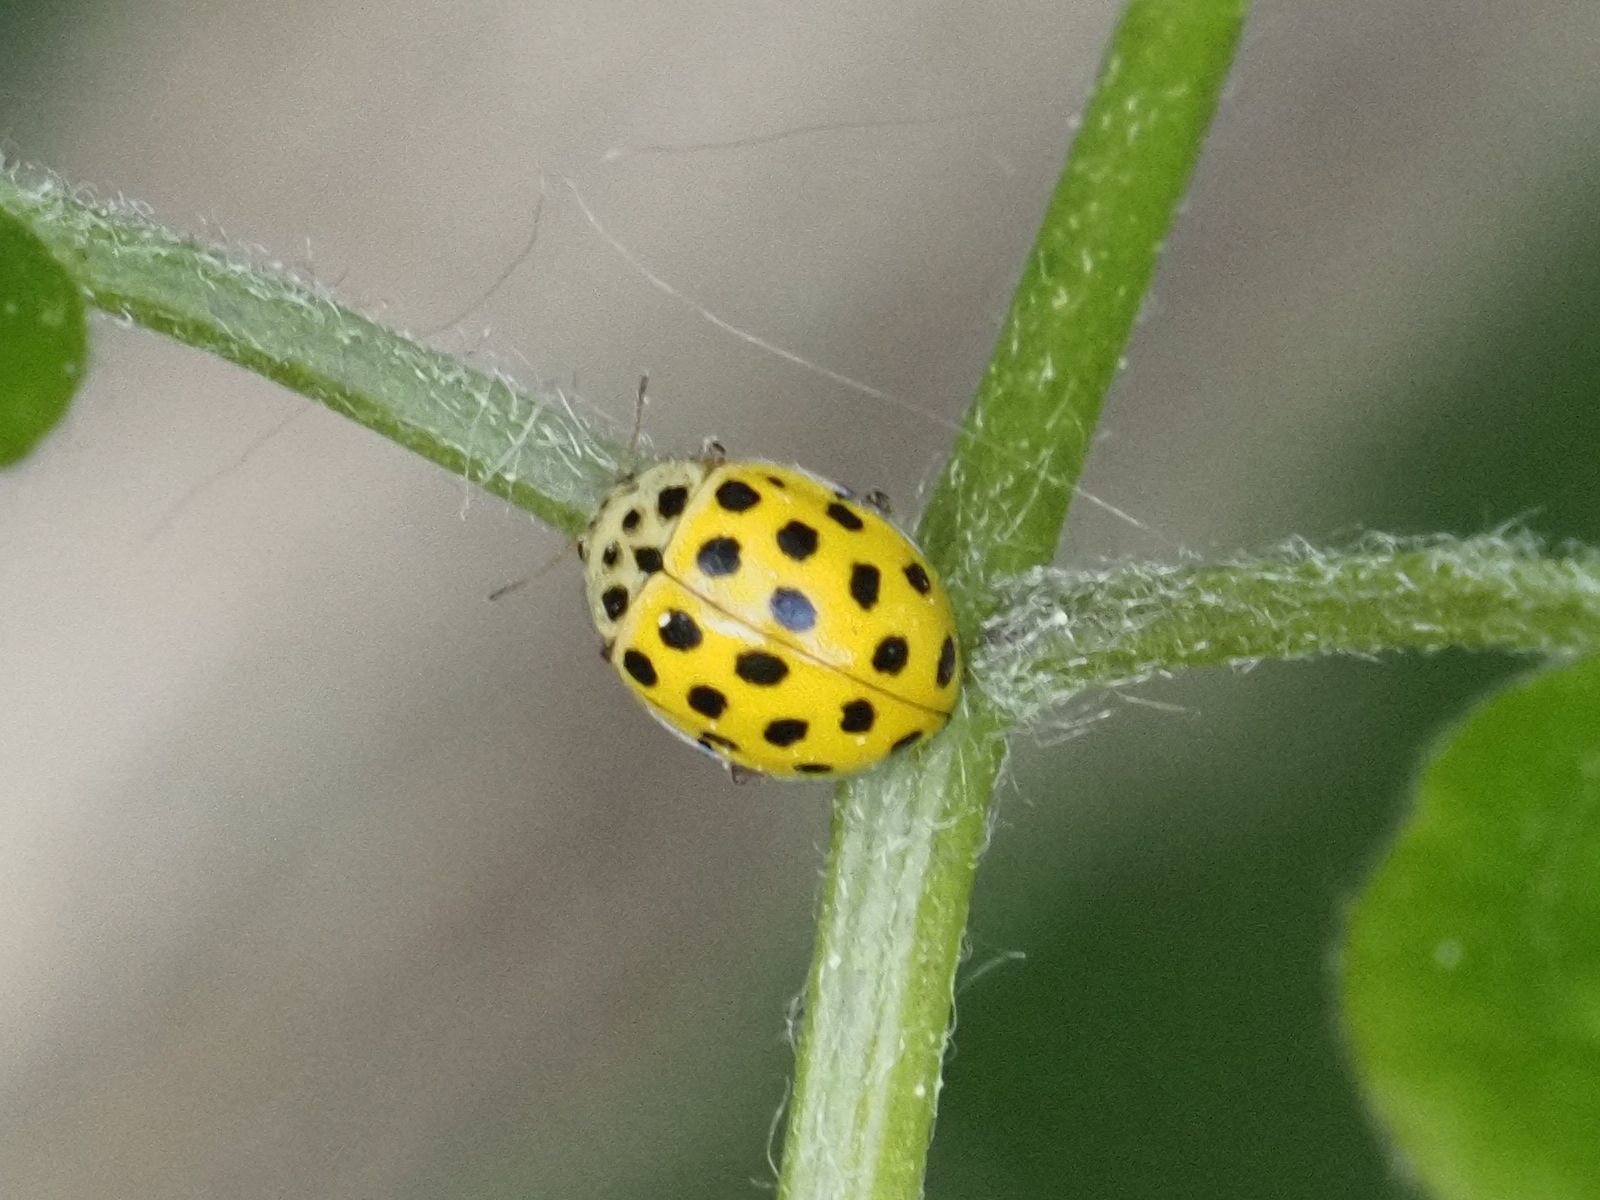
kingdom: Animalia
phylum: Arthropoda
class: Insecta
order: Coleoptera
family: Coccinellidae
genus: Psyllobora
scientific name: Psyllobora vigintiduopunctata
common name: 22-spot ladybird
